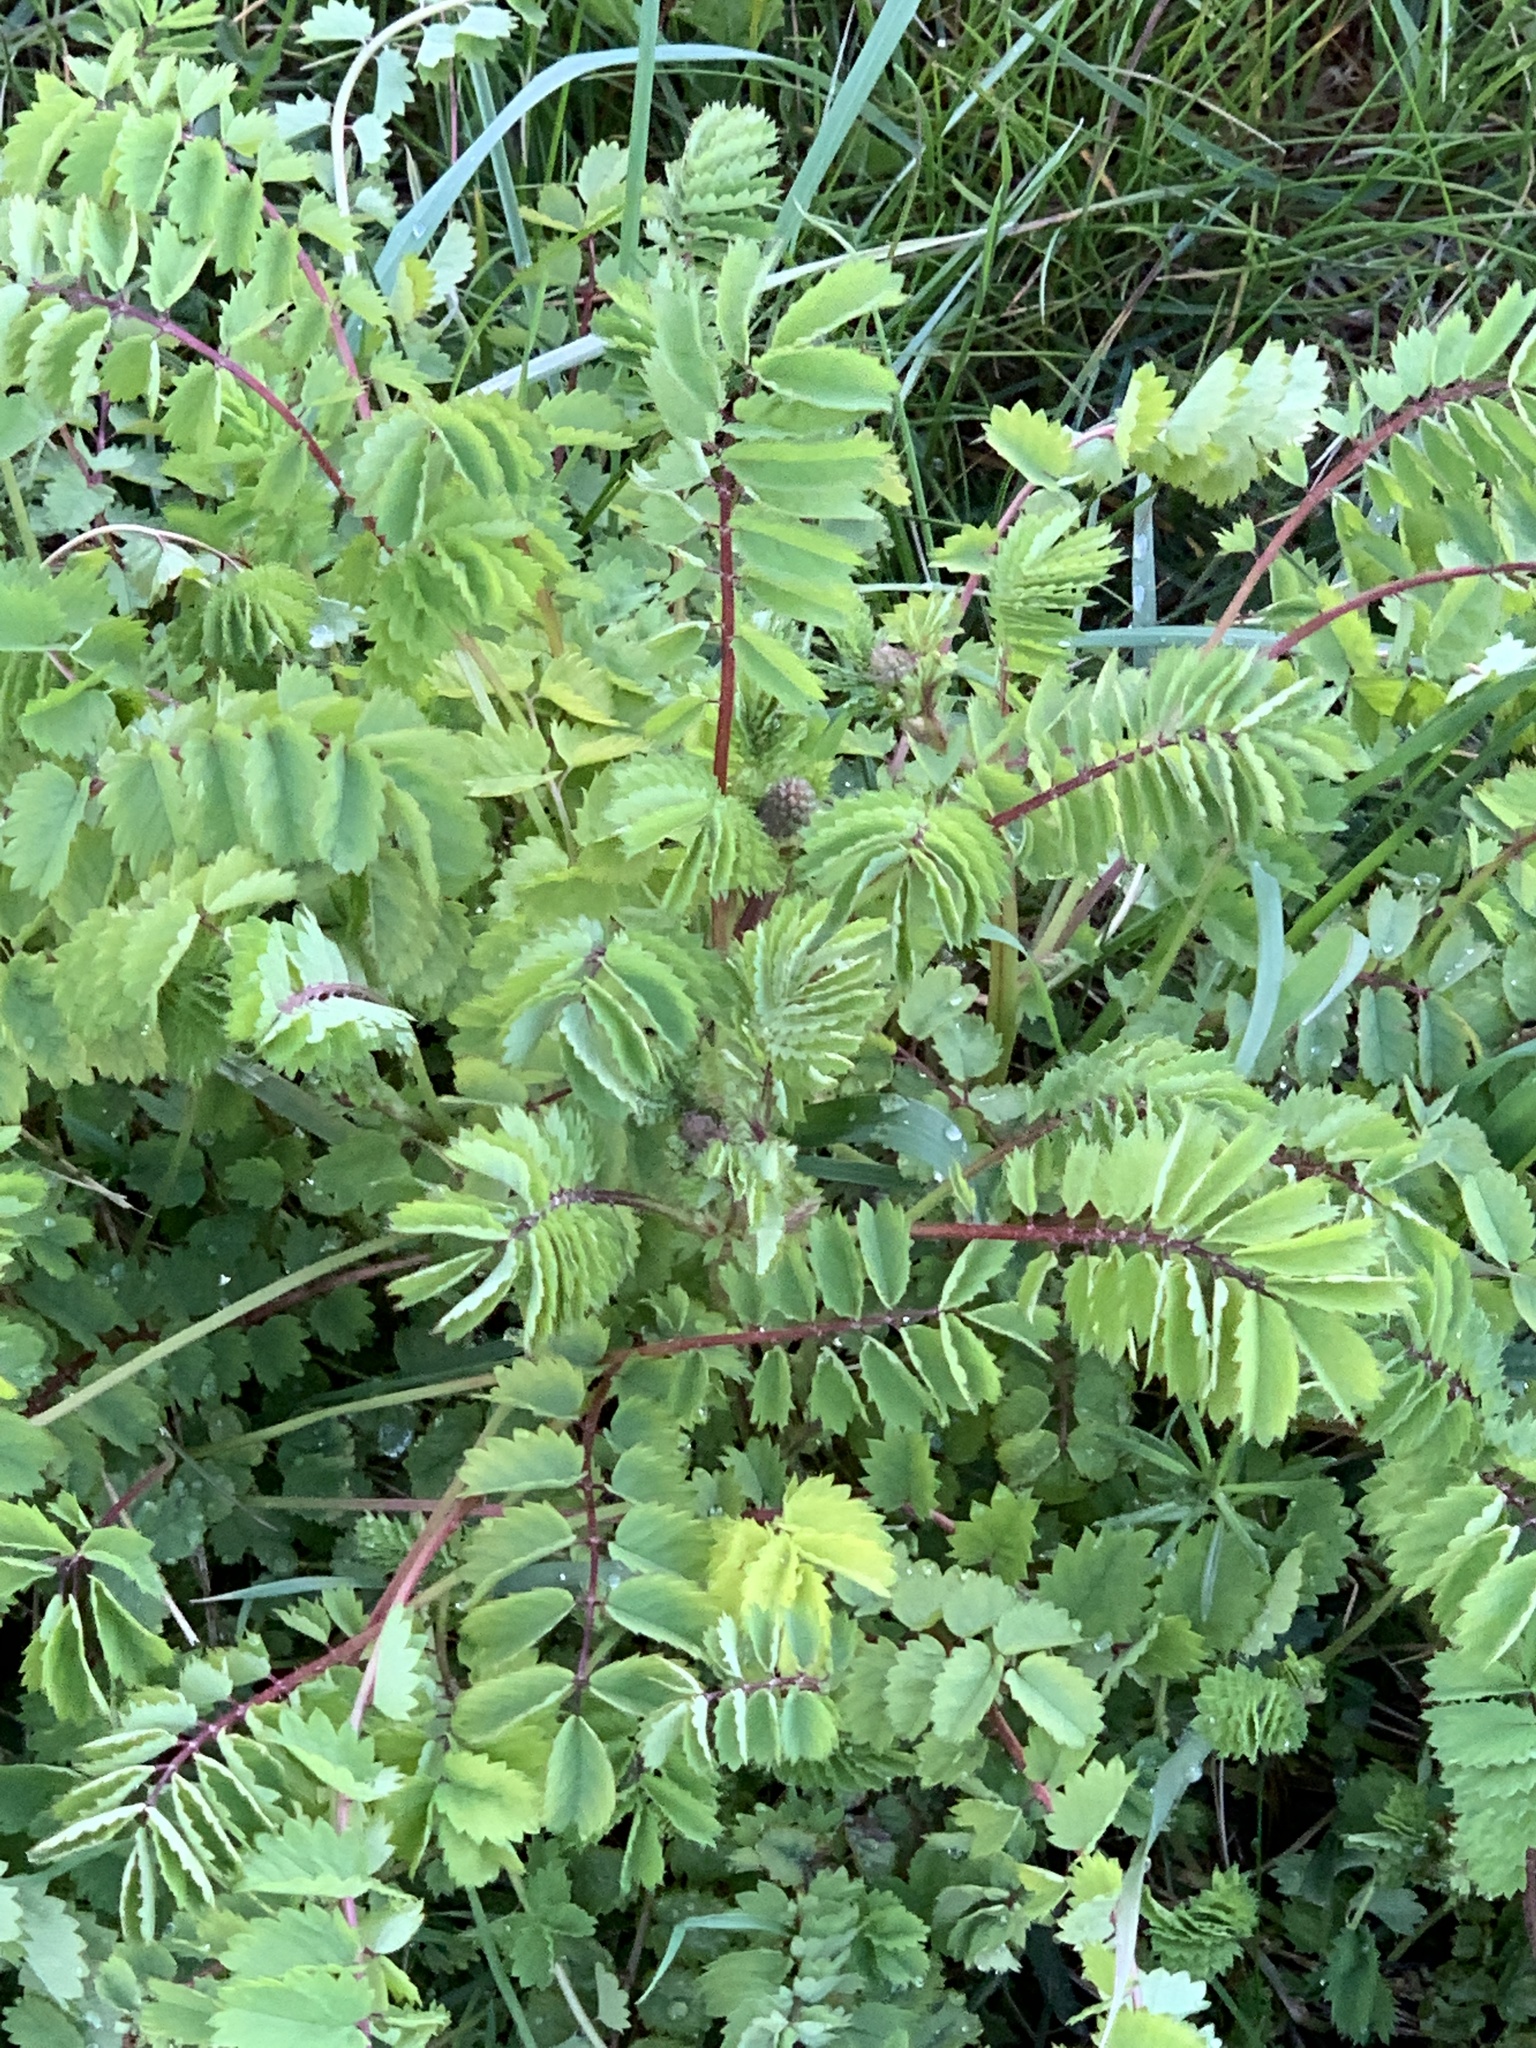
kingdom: Plantae
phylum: Tracheophyta
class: Magnoliopsida
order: Rosales
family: Rosaceae
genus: Poterium
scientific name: Poterium sanguisorba
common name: Salad burnet
